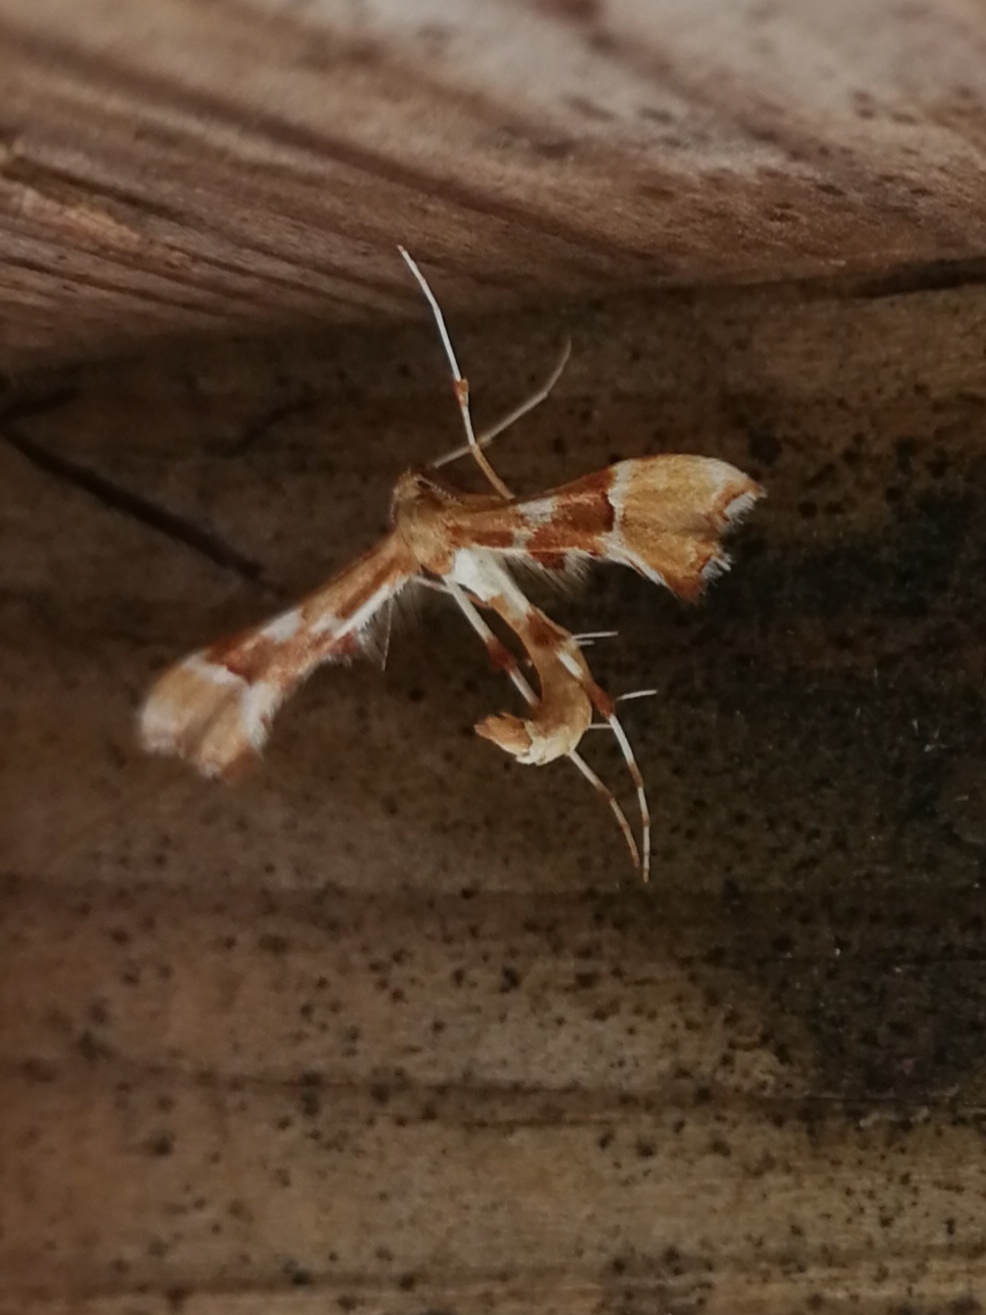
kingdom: Animalia
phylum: Arthropoda
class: Insecta
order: Lepidoptera
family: Pterophoridae
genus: Cnaemidophorus
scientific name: Cnaemidophorus rhododactyla
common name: Rose plume
